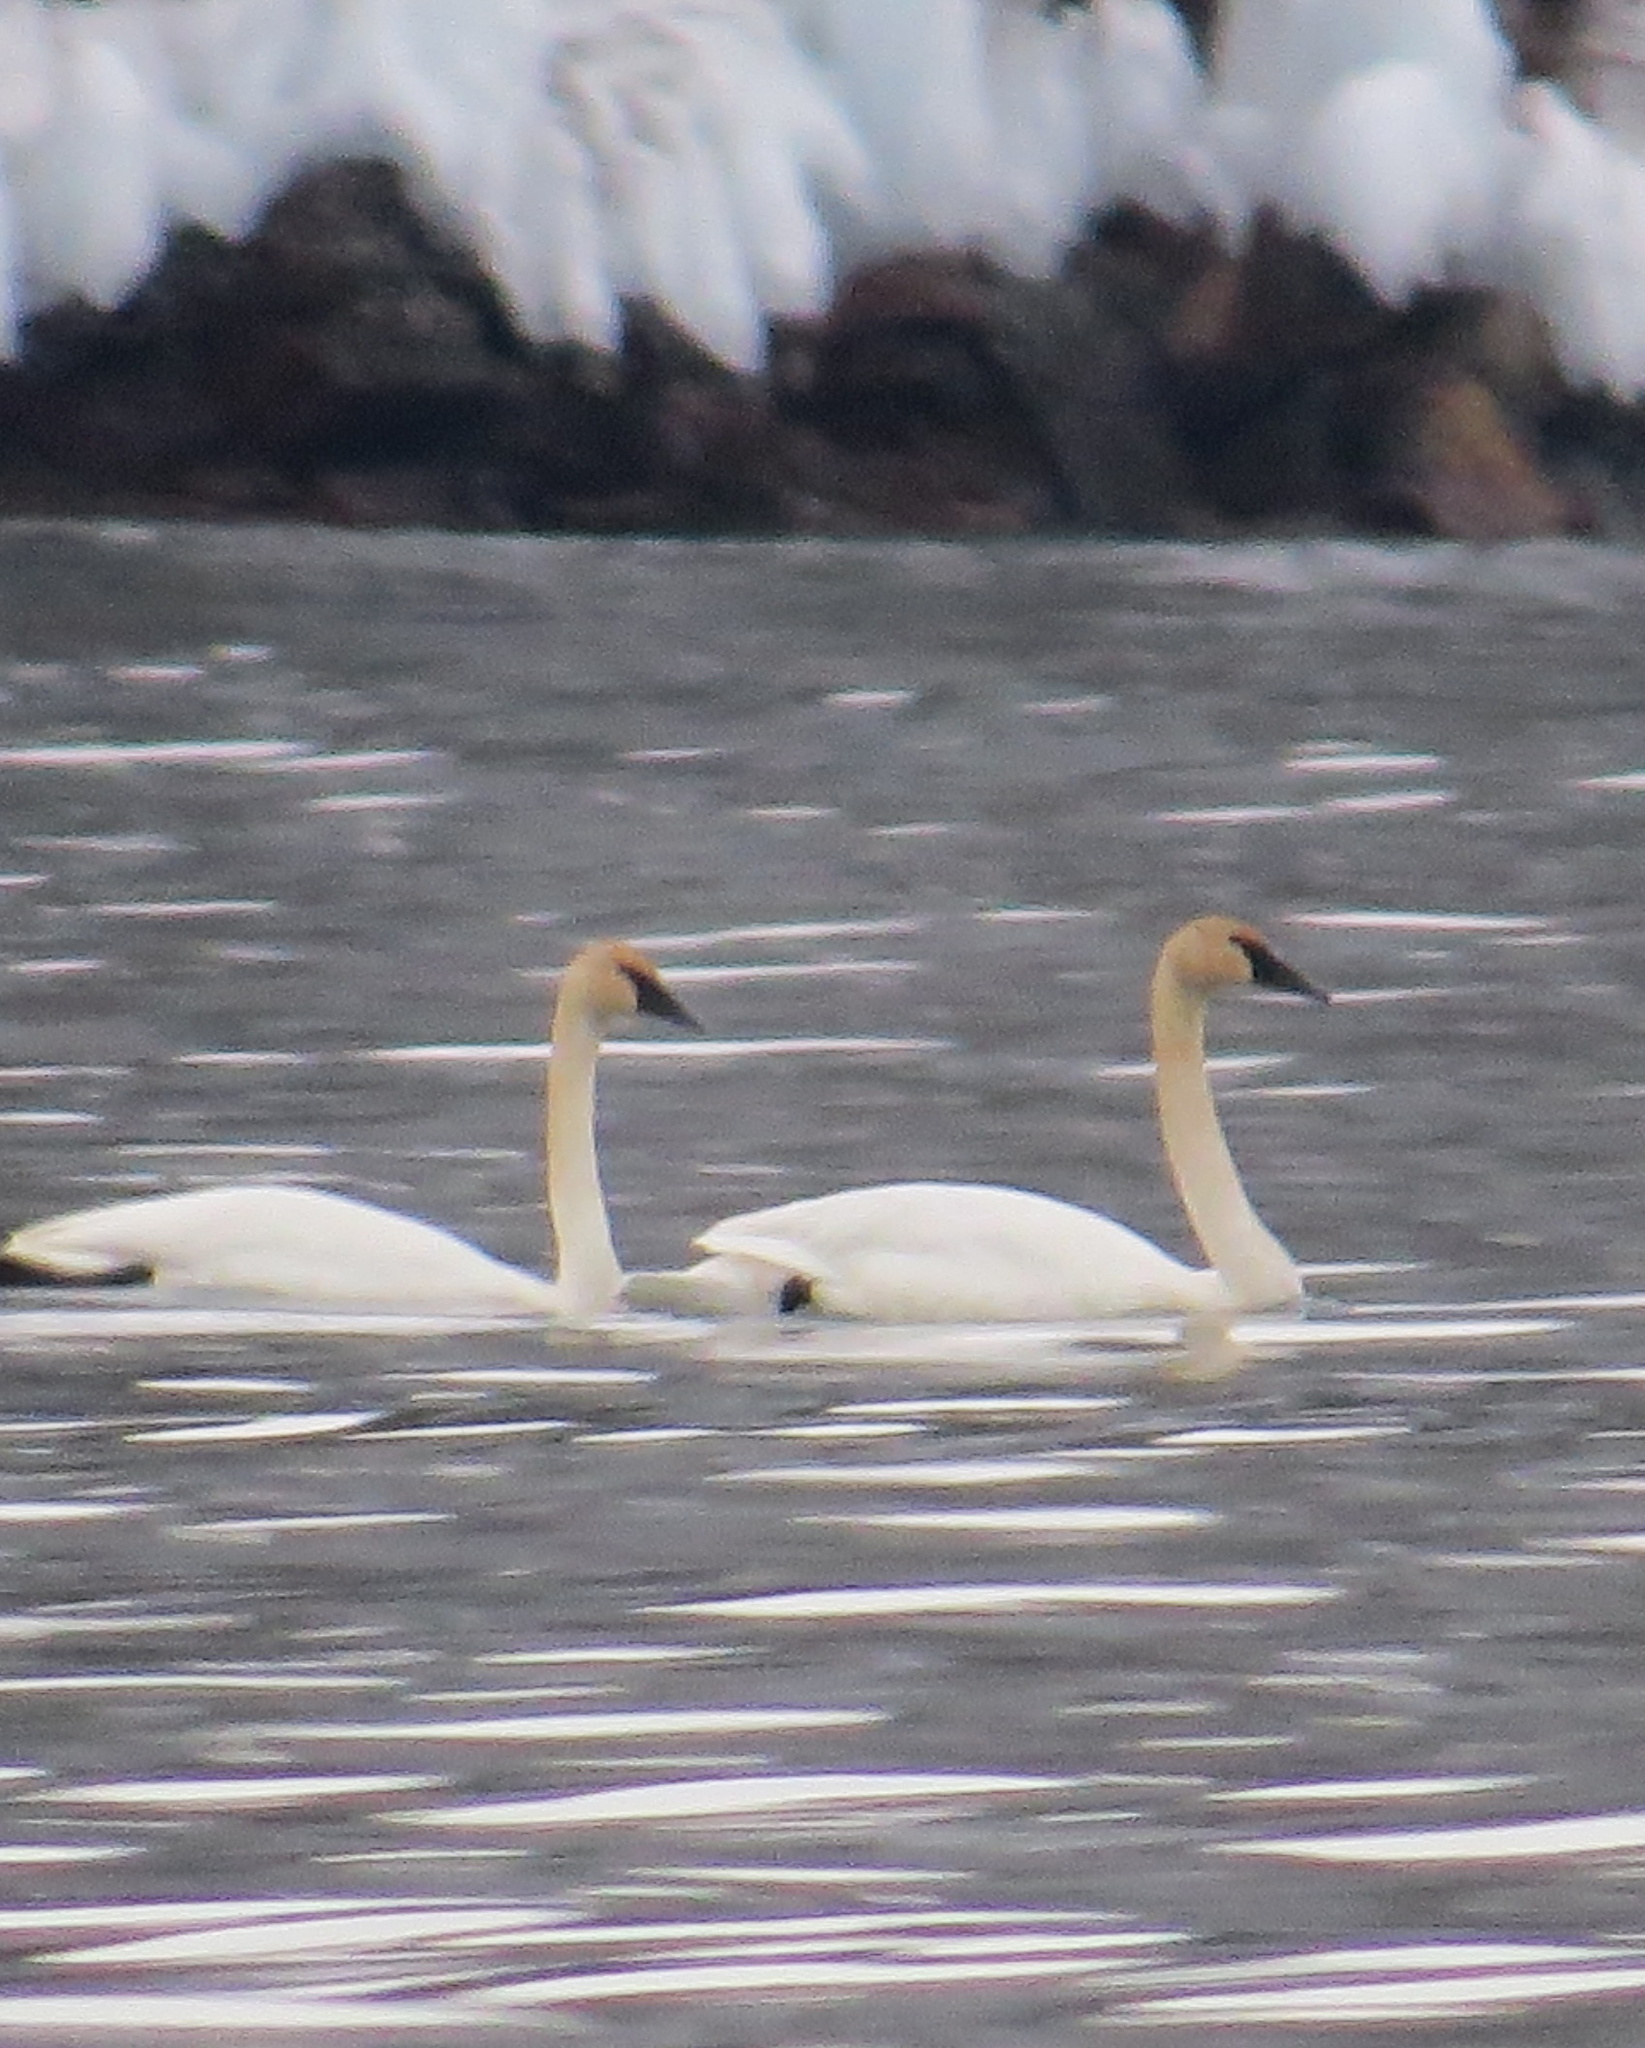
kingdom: Animalia
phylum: Chordata
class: Aves
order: Anseriformes
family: Anatidae
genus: Cygnus
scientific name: Cygnus buccinator
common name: Trumpeter swan
